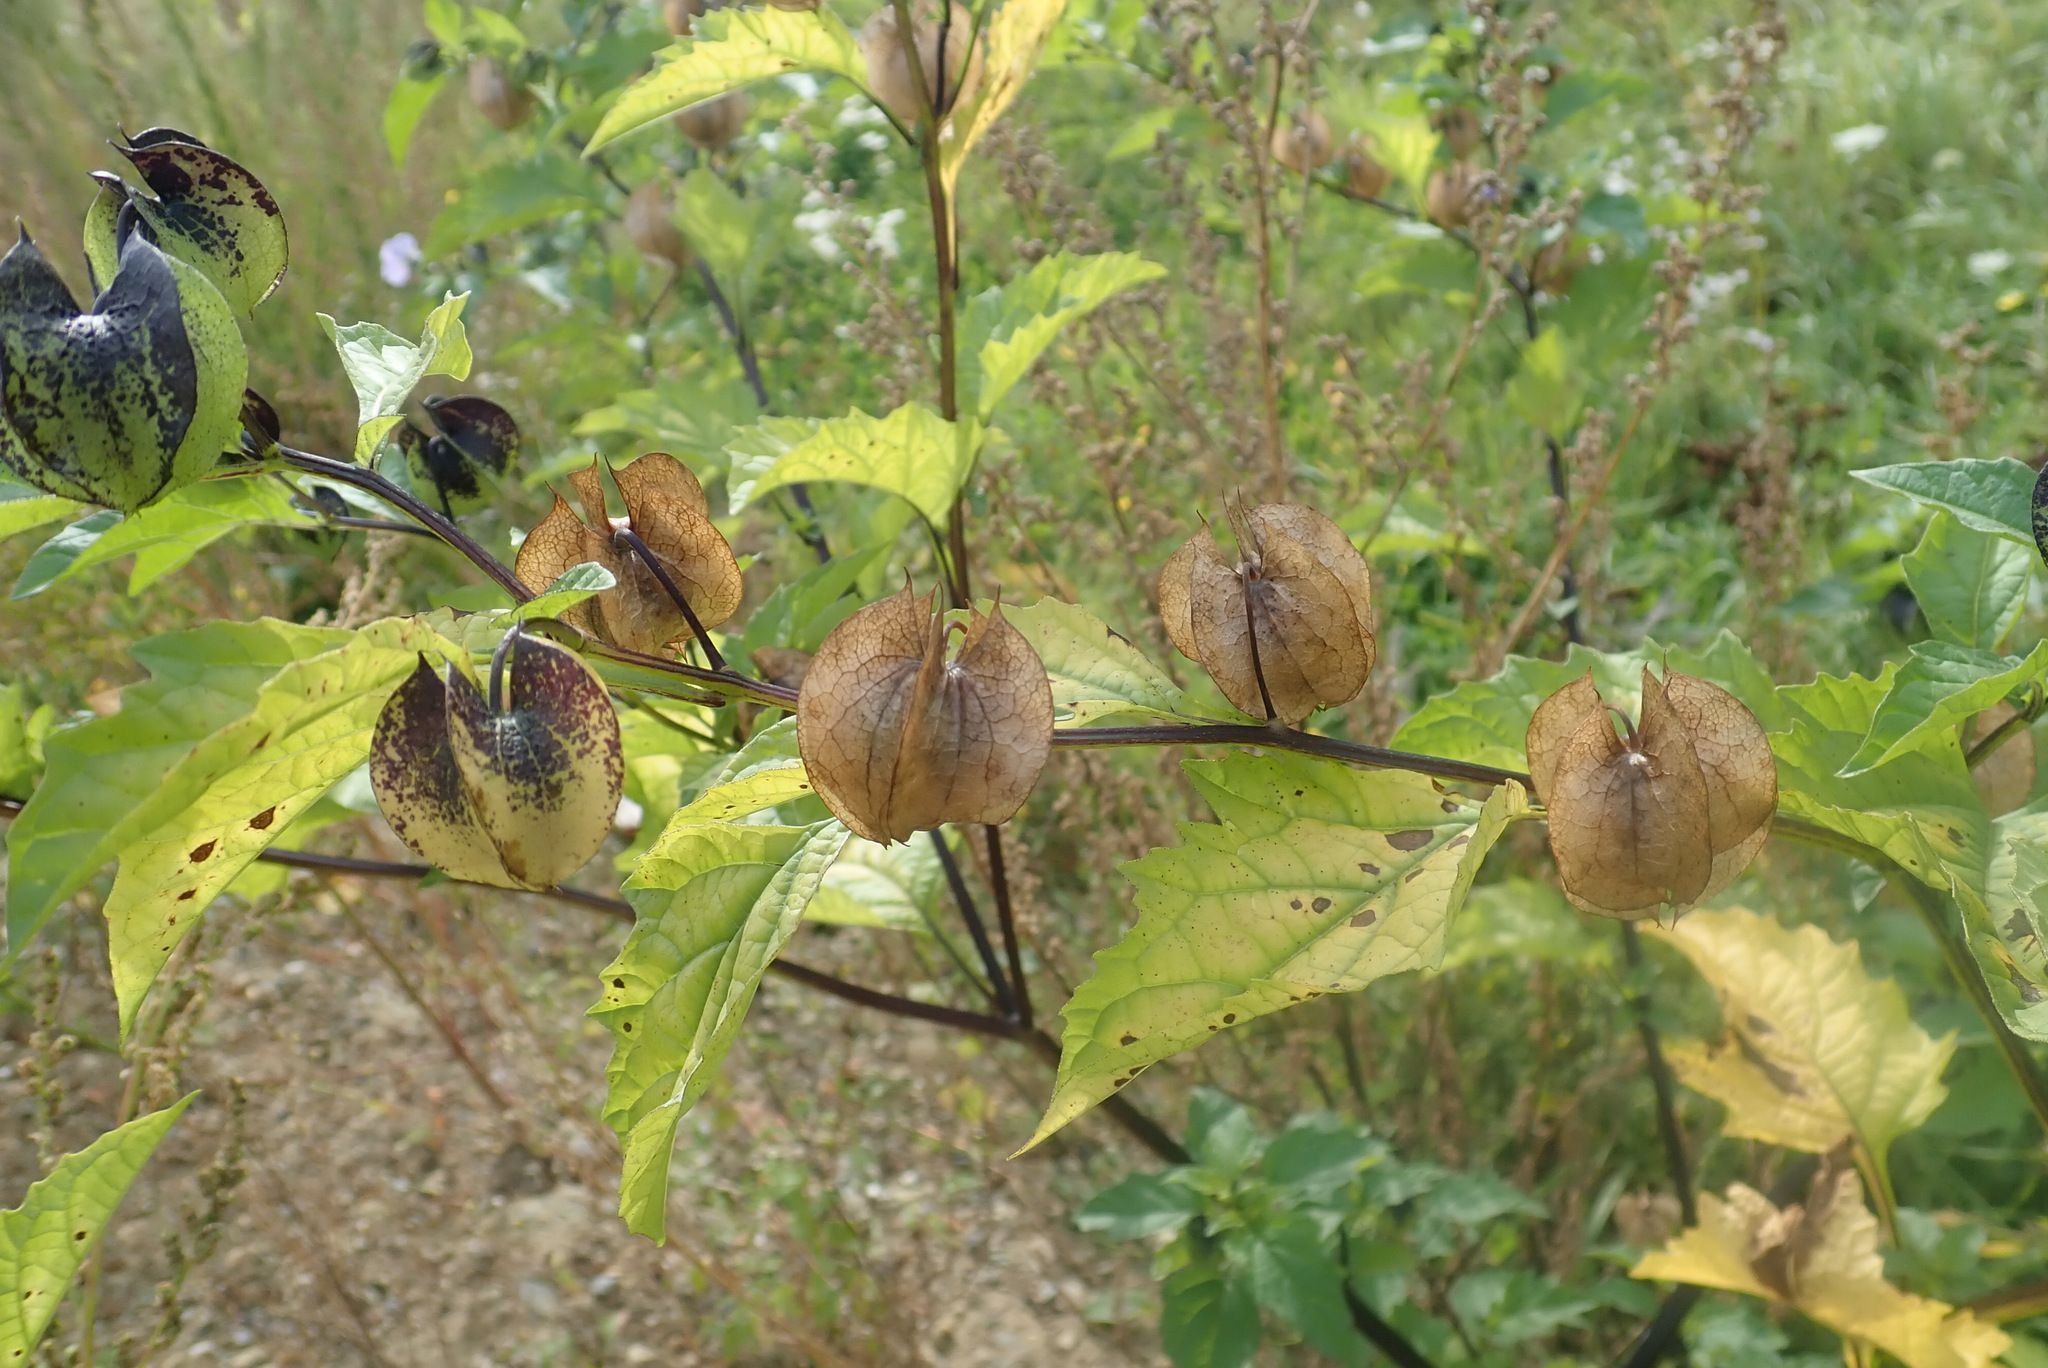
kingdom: Plantae
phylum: Tracheophyta
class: Magnoliopsida
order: Solanales
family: Solanaceae
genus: Nicandra
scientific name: Nicandra physalodes
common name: Apple-of-peru
